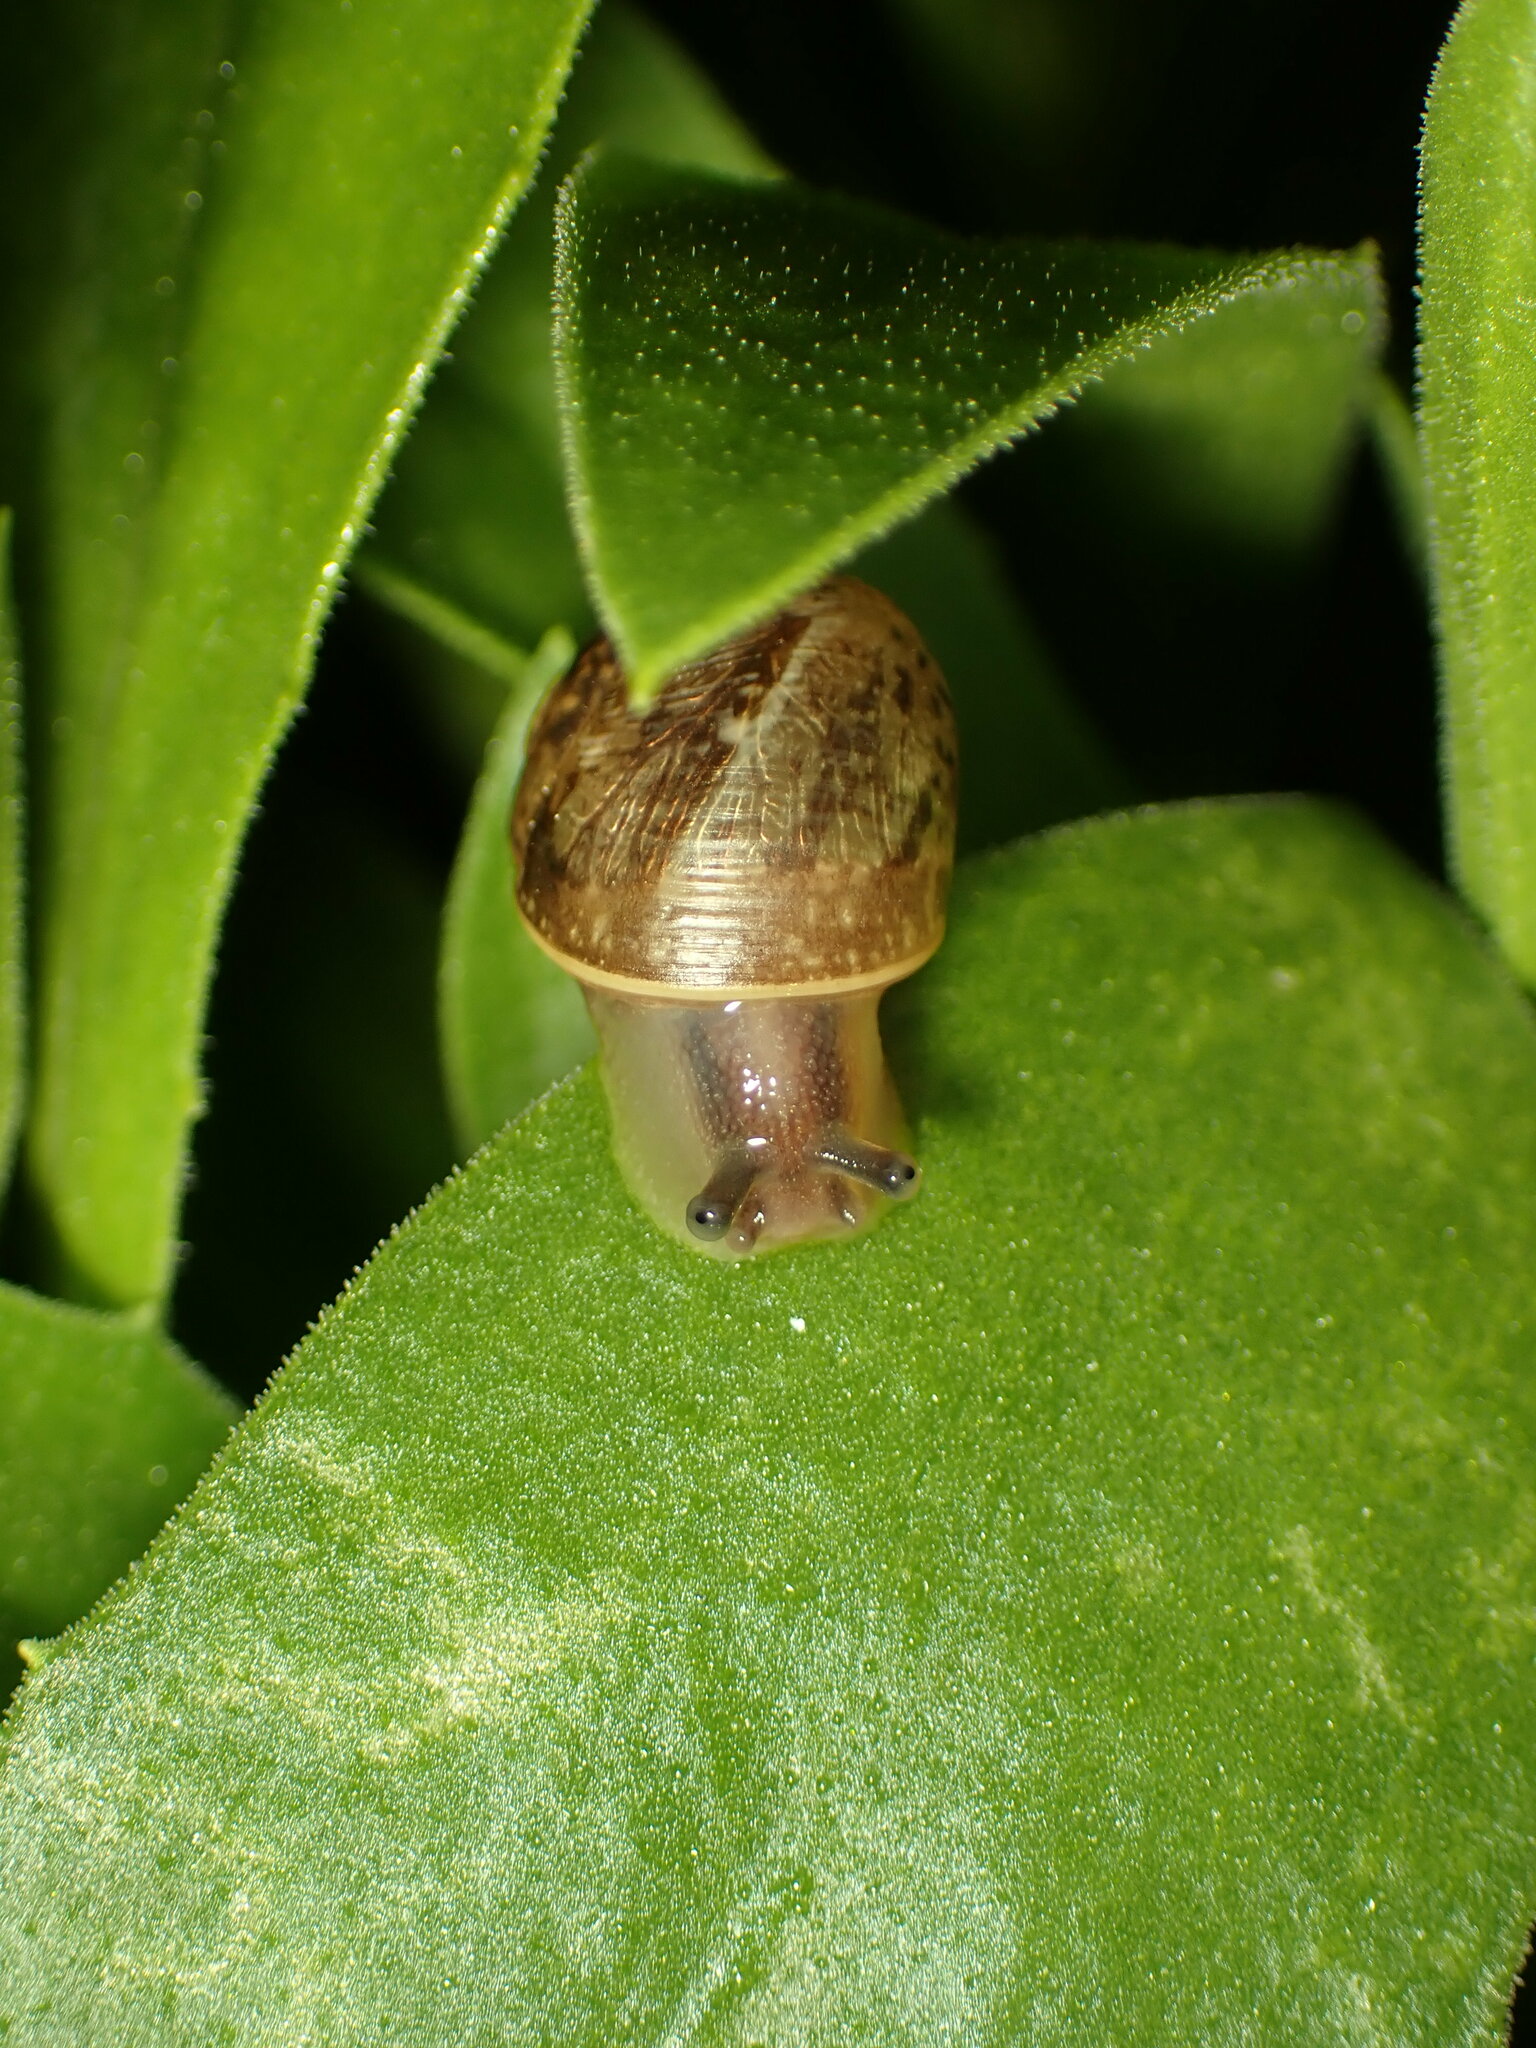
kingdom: Animalia
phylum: Mollusca
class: Gastropoda
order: Stylommatophora
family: Helicidae
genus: Cornu
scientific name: Cornu aspersum
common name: Brown garden snail
